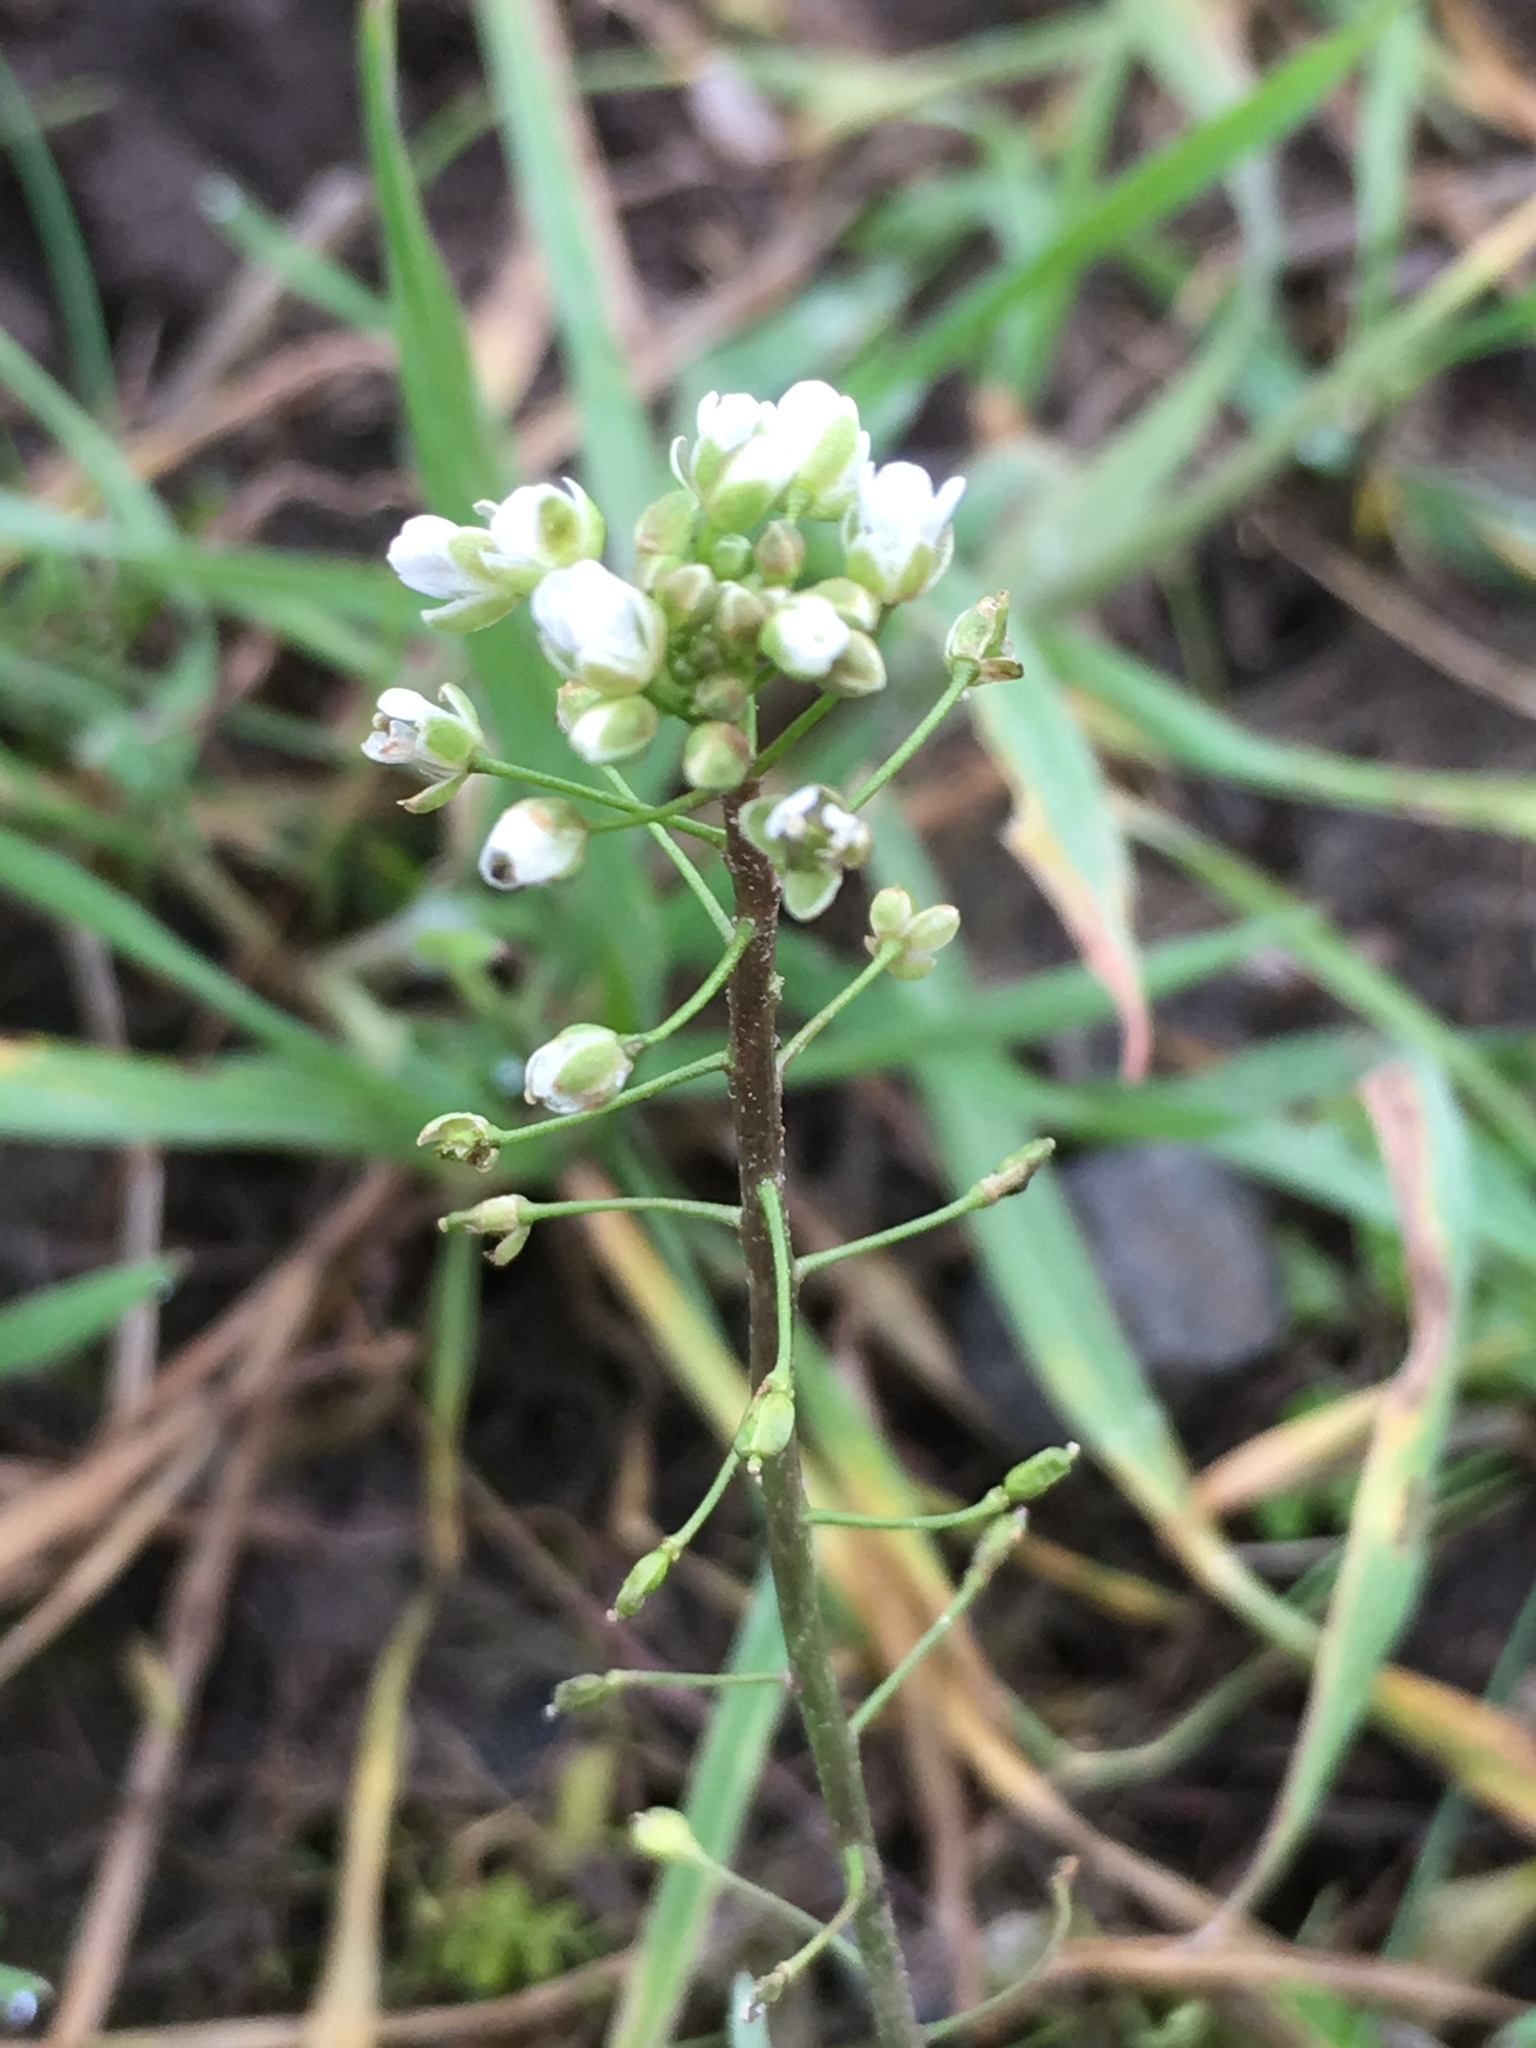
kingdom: Plantae
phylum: Tracheophyta
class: Magnoliopsida
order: Brassicales
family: Brassicaceae
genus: Capsella
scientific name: Capsella bursa-pastoris
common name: Shepherd's purse
